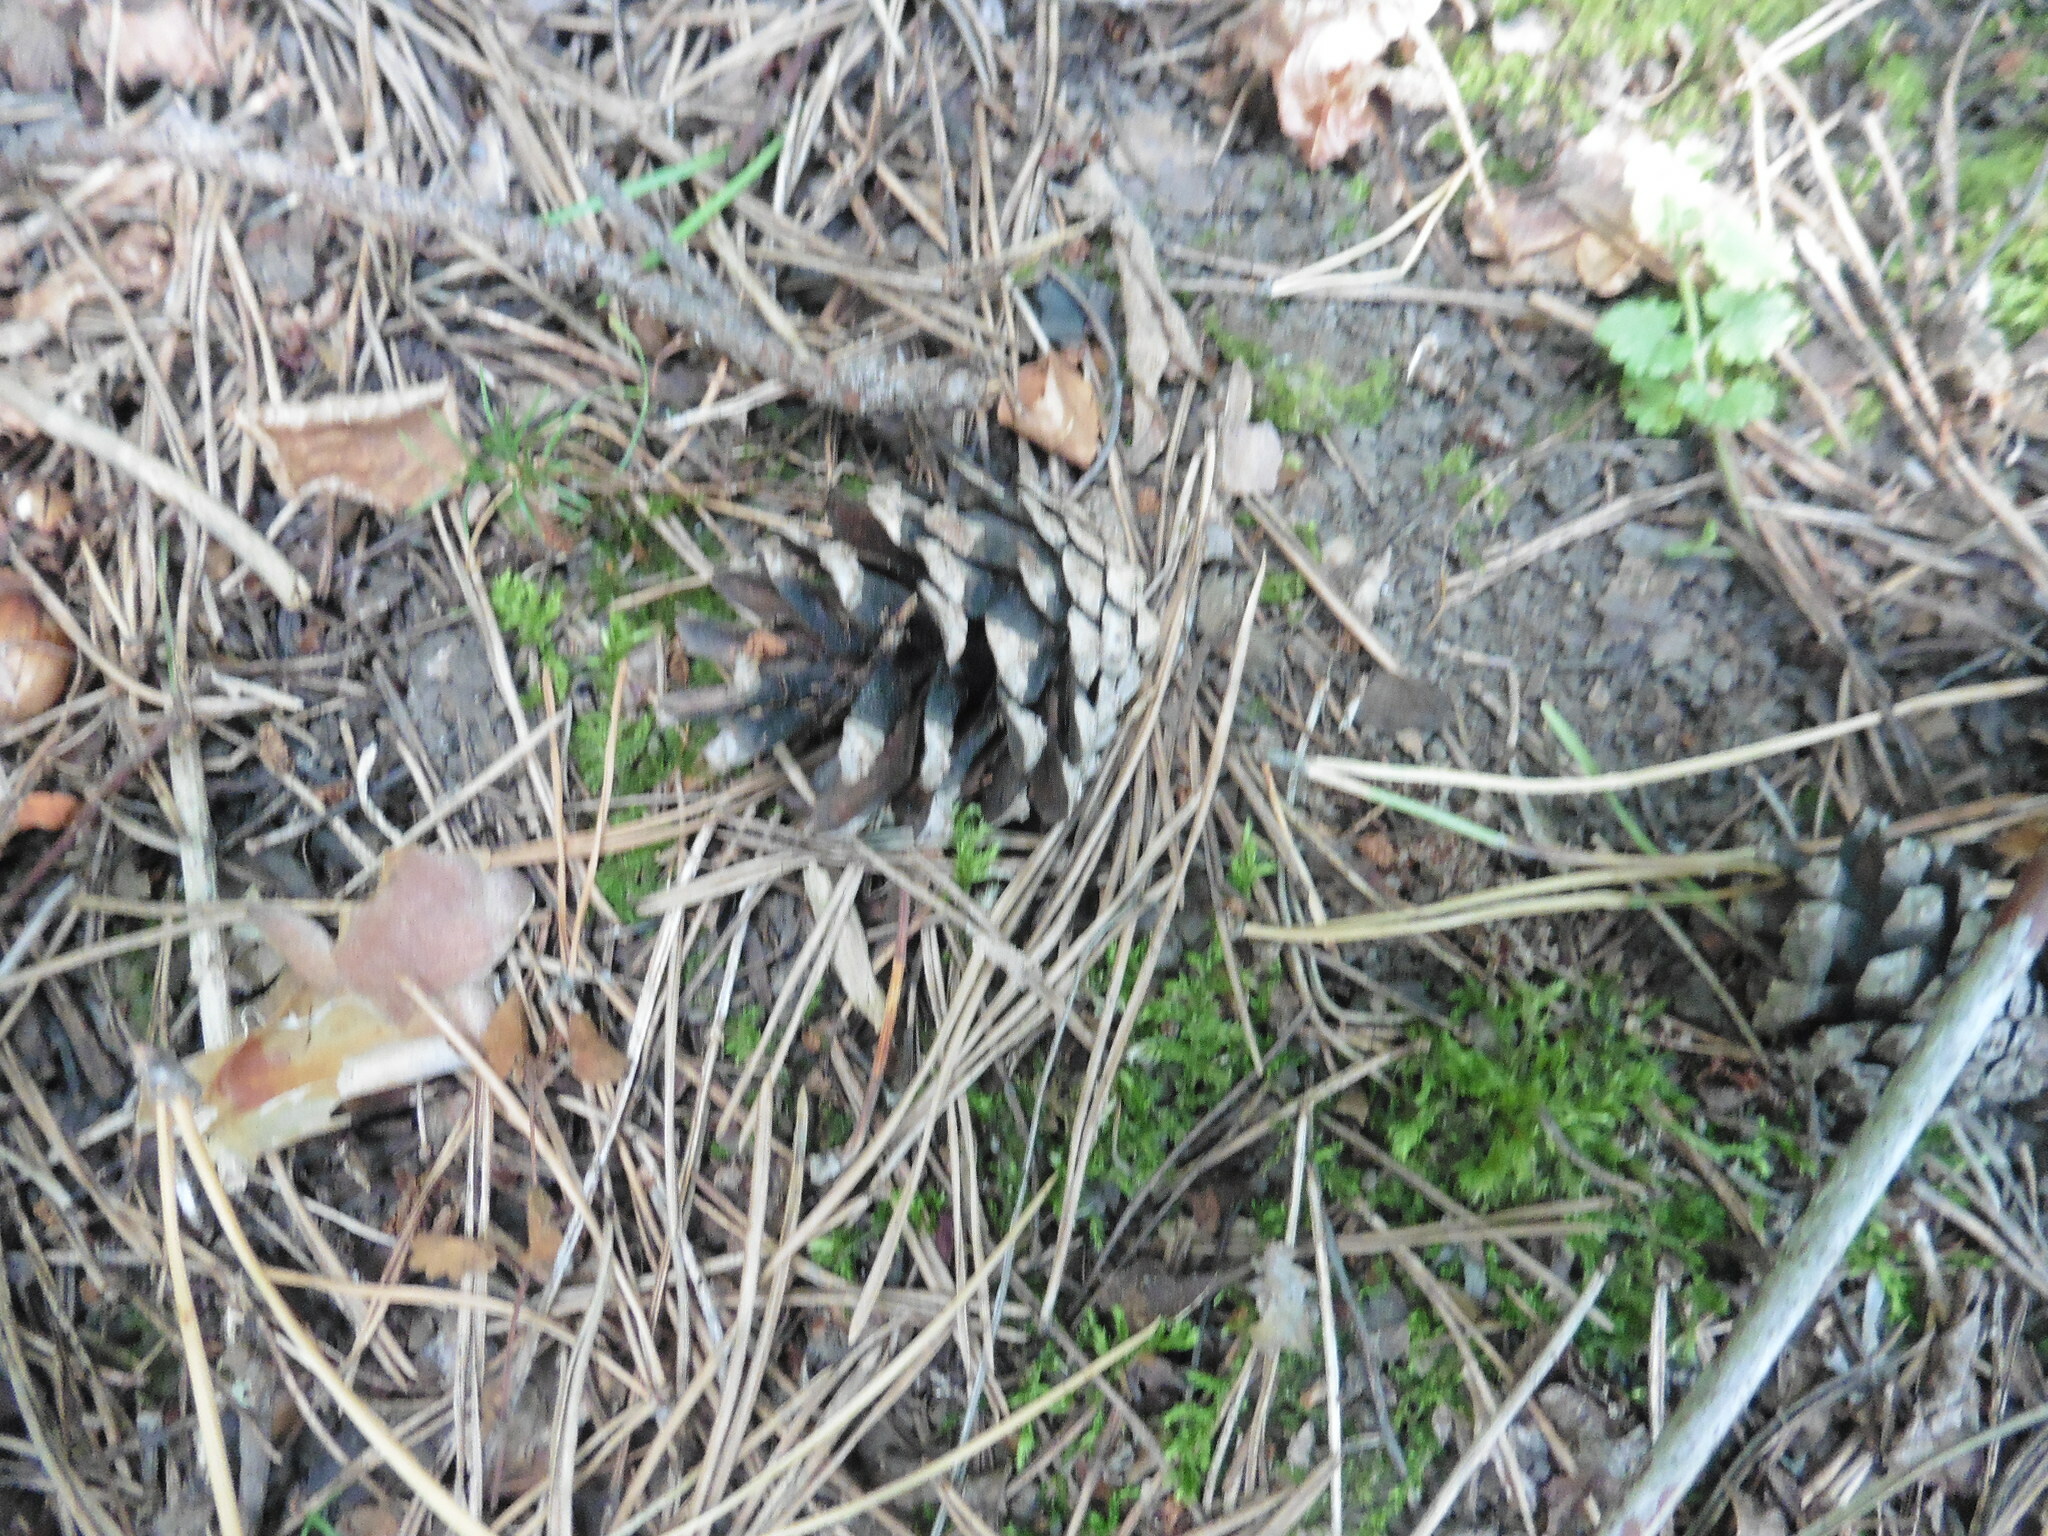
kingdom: Plantae
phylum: Tracheophyta
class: Pinopsida
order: Pinales
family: Pinaceae
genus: Pinus
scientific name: Pinus sylvestris
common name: Scots pine
